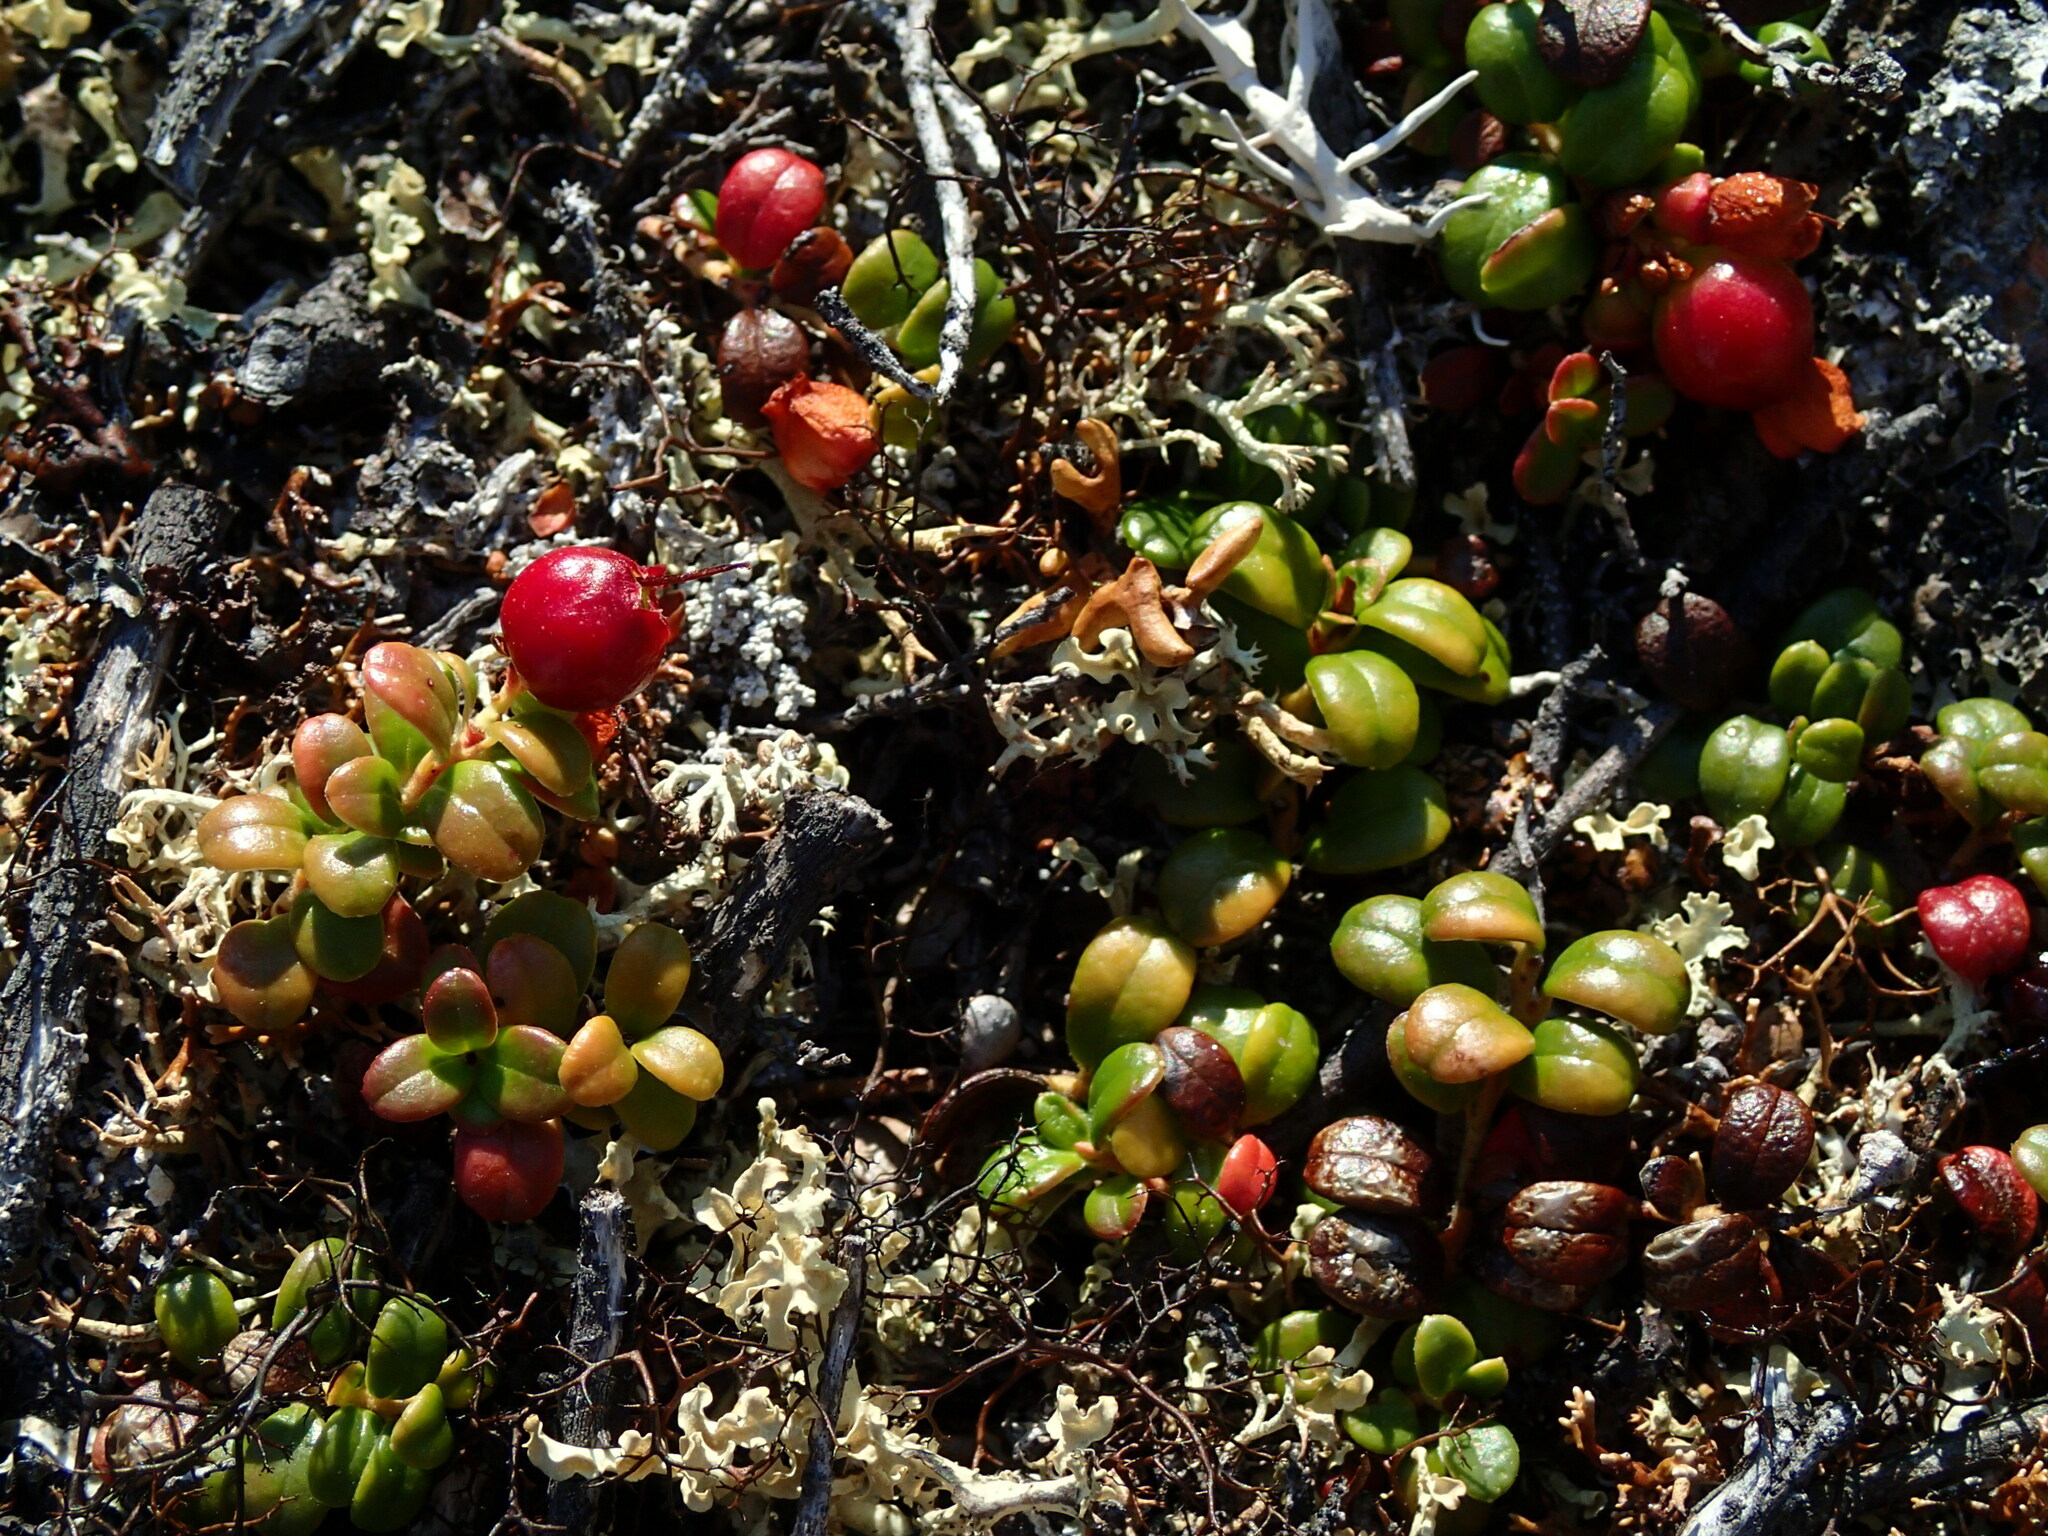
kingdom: Plantae
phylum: Tracheophyta
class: Magnoliopsida
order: Ericales
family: Ericaceae
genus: Vaccinium
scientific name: Vaccinium vitis-idaea
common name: Cowberry
